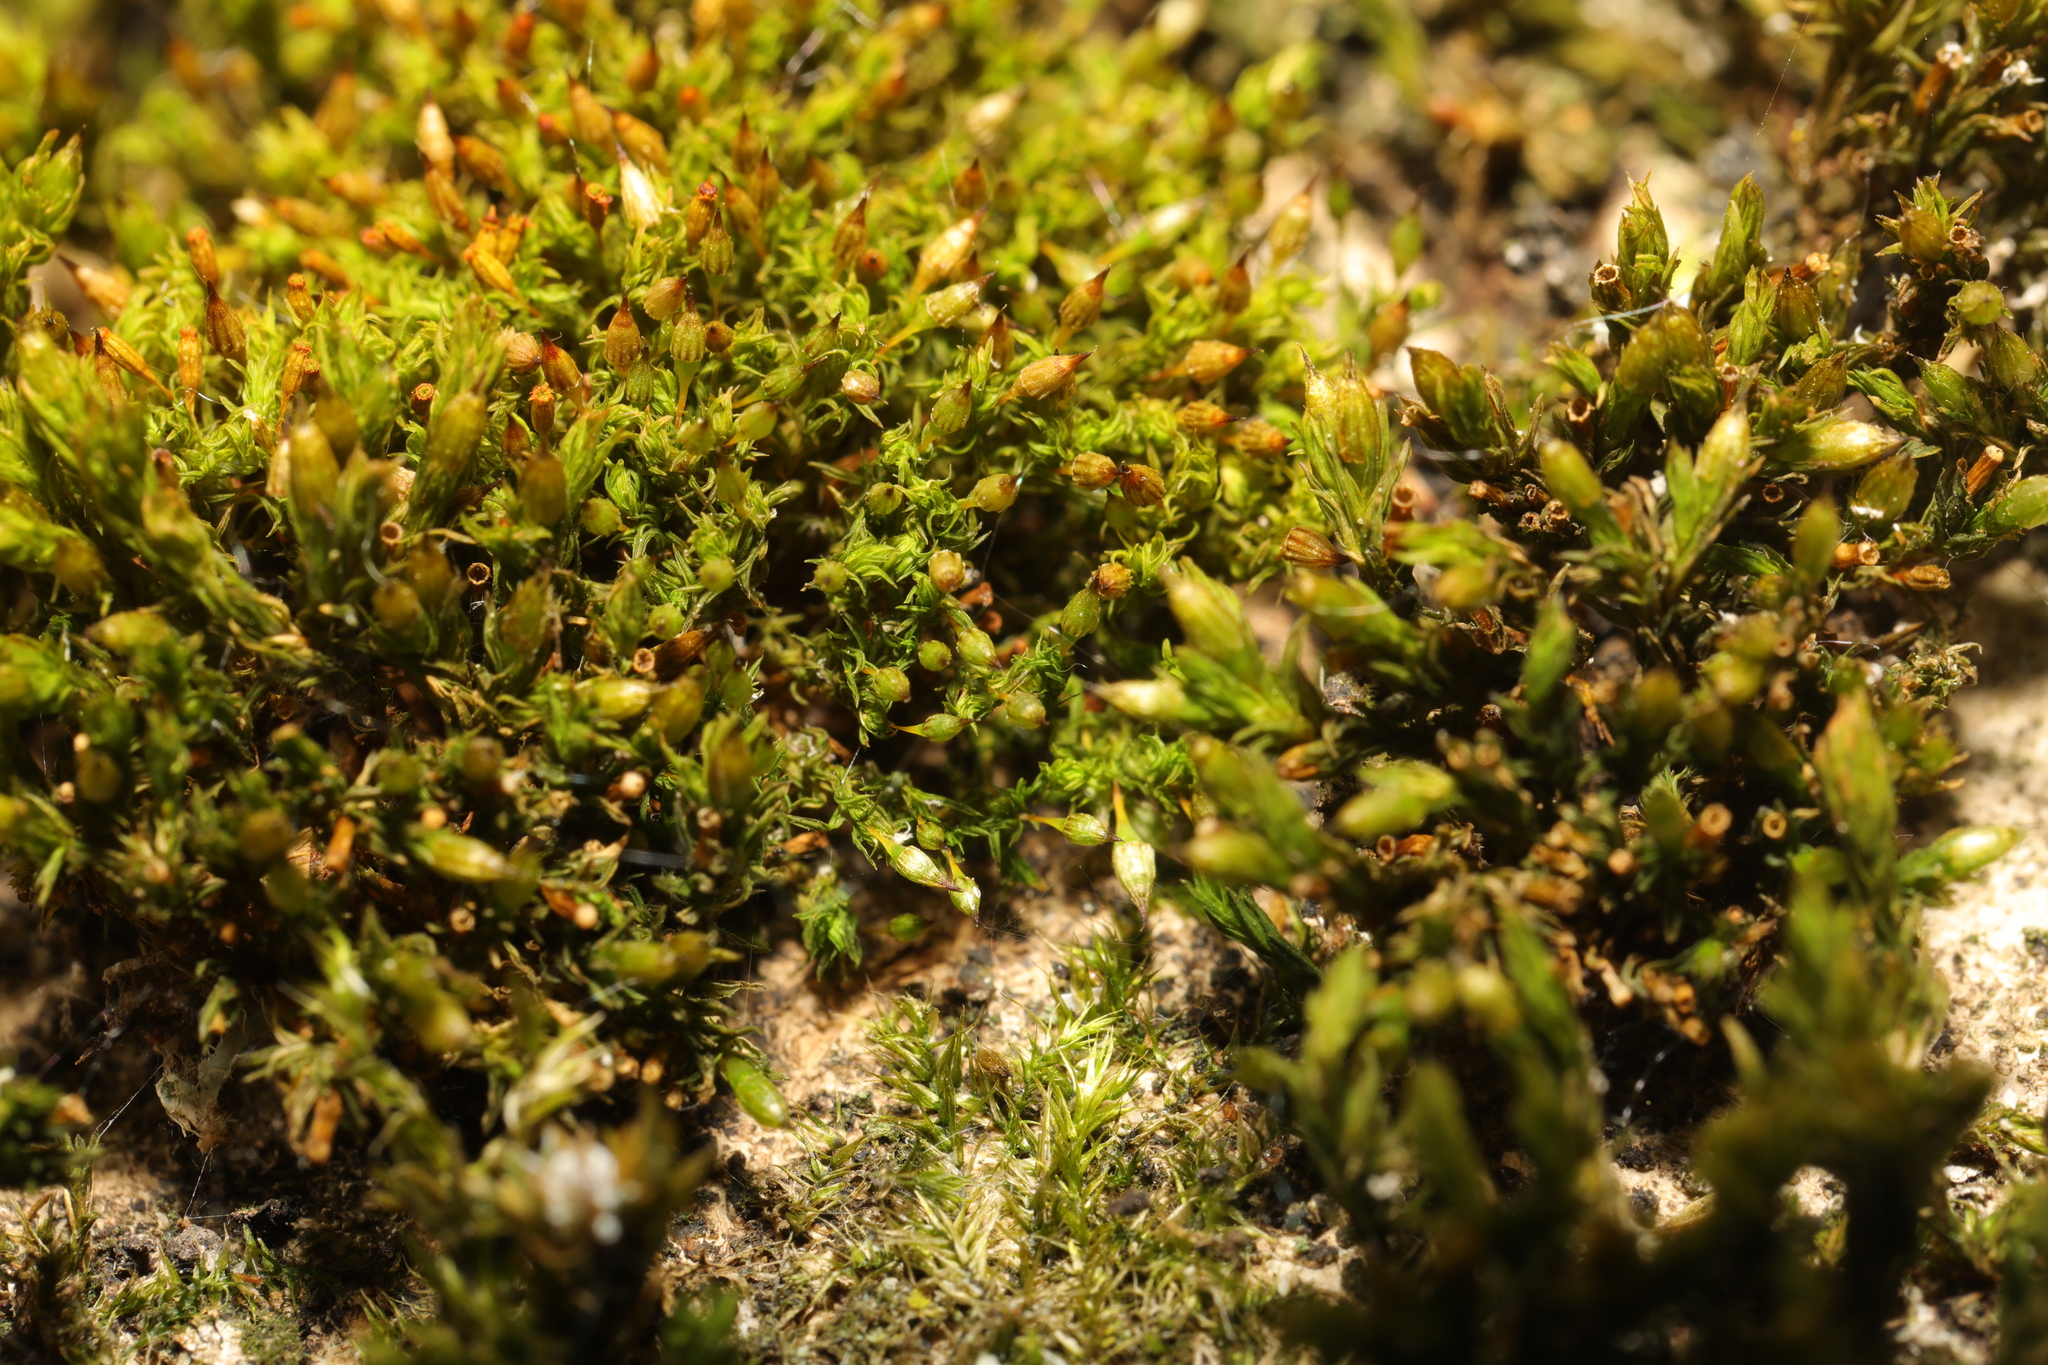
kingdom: Plantae
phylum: Bryophyta
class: Bryopsida
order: Orthotrichales
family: Orthotrichaceae
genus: Orthotrichum
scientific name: Orthotrichum pulchellum
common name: Elegant bristle-moss
